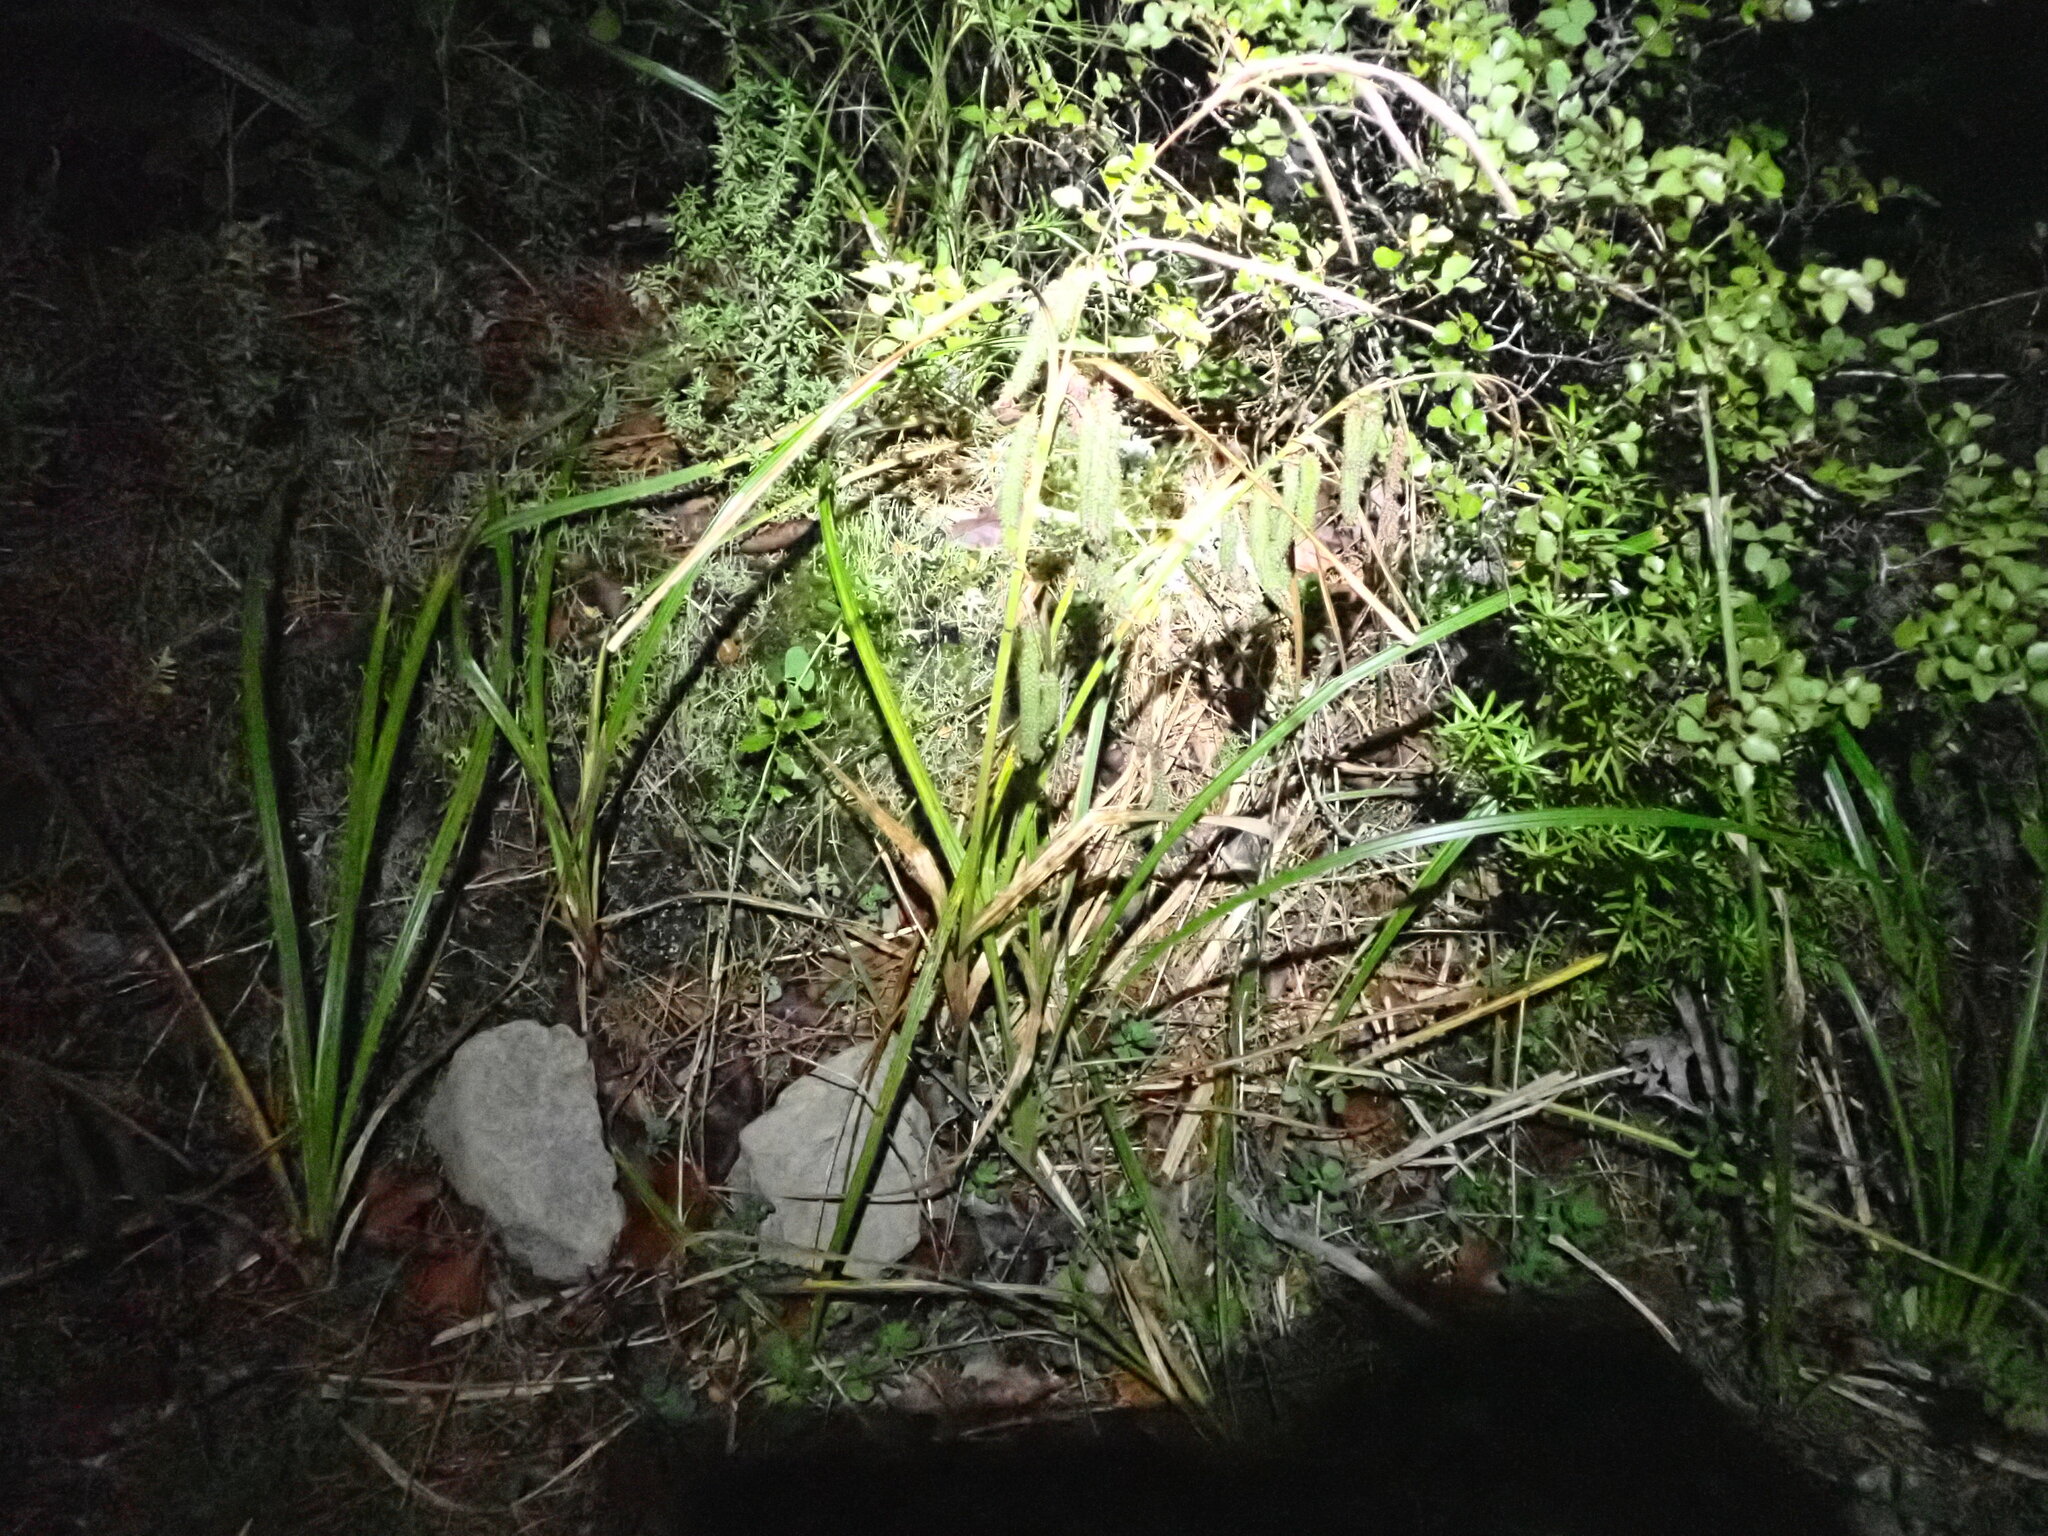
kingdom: Plantae
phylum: Tracheophyta
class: Liliopsida
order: Poales
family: Cyperaceae
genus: Carex
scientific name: Carex geminata
